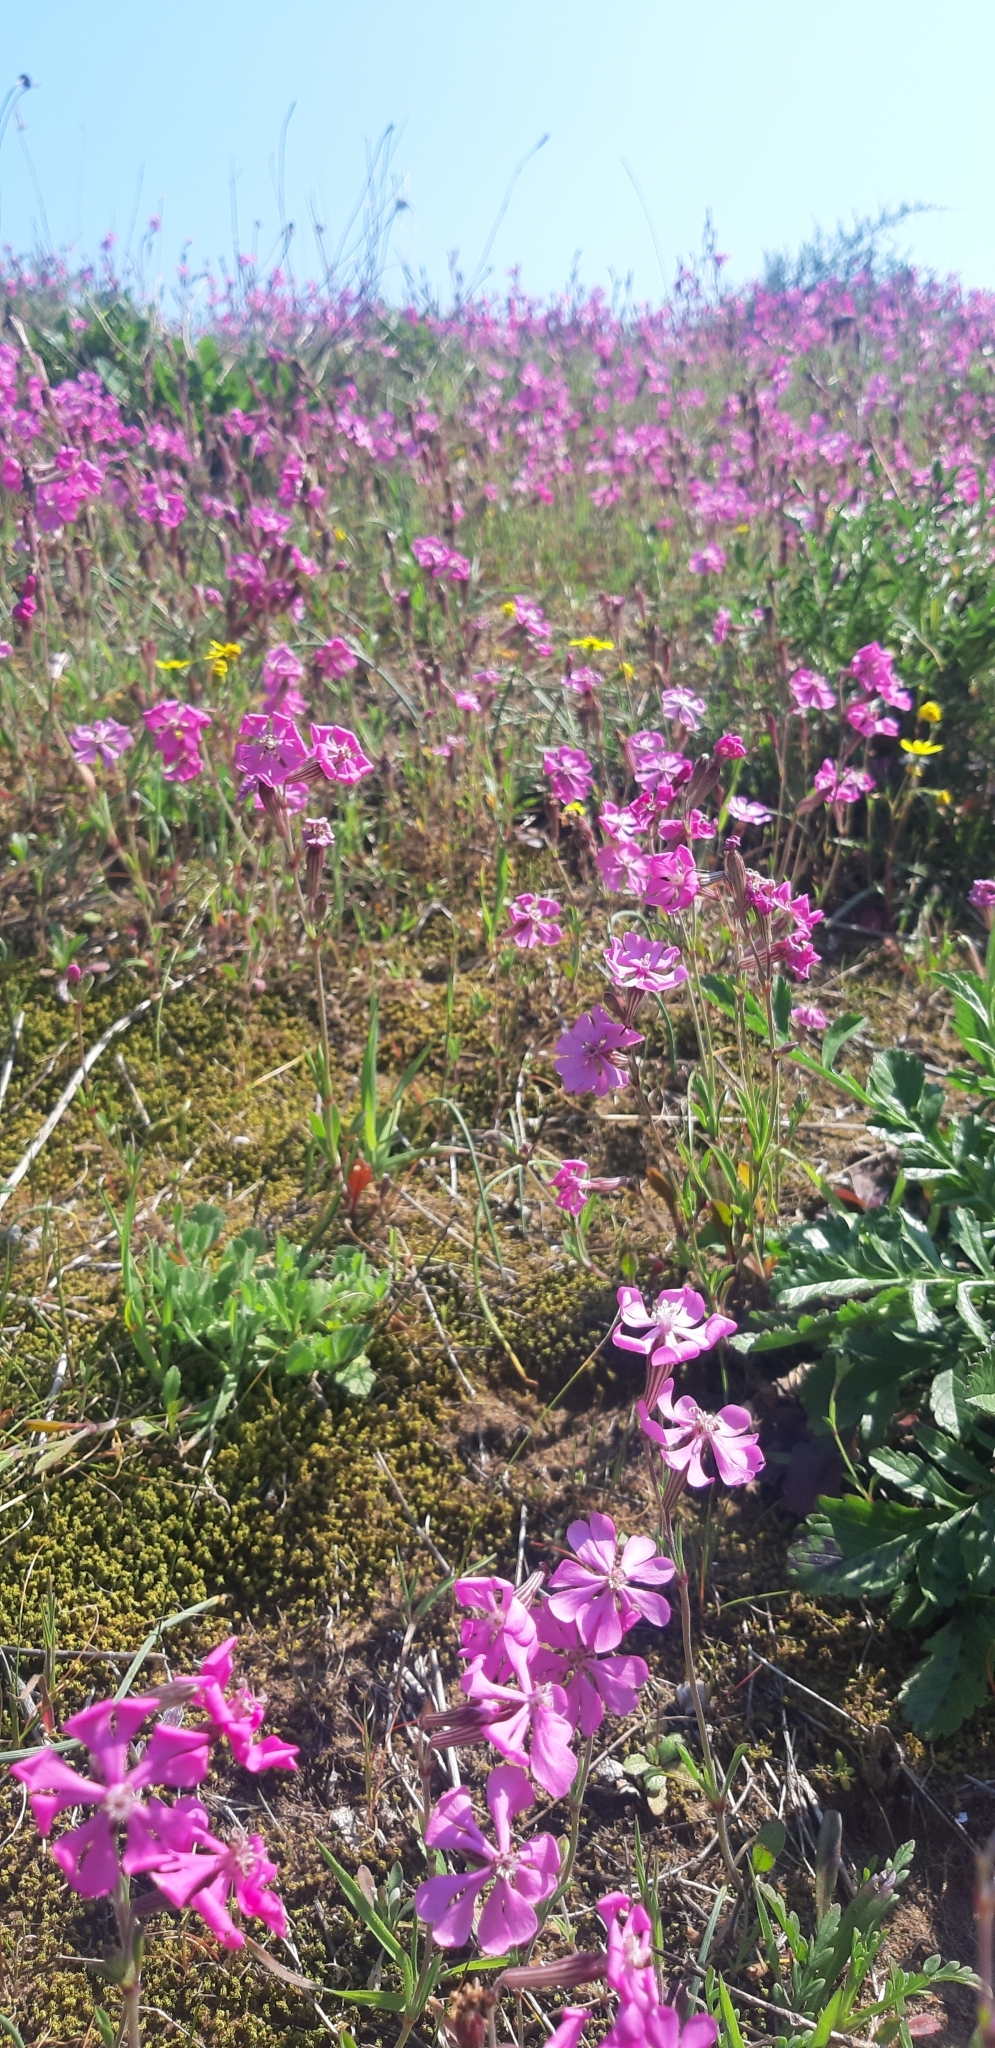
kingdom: Plantae
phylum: Tracheophyta
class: Magnoliopsida
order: Caryophyllales
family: Caryophyllaceae
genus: Silene
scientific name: Silene colorata
